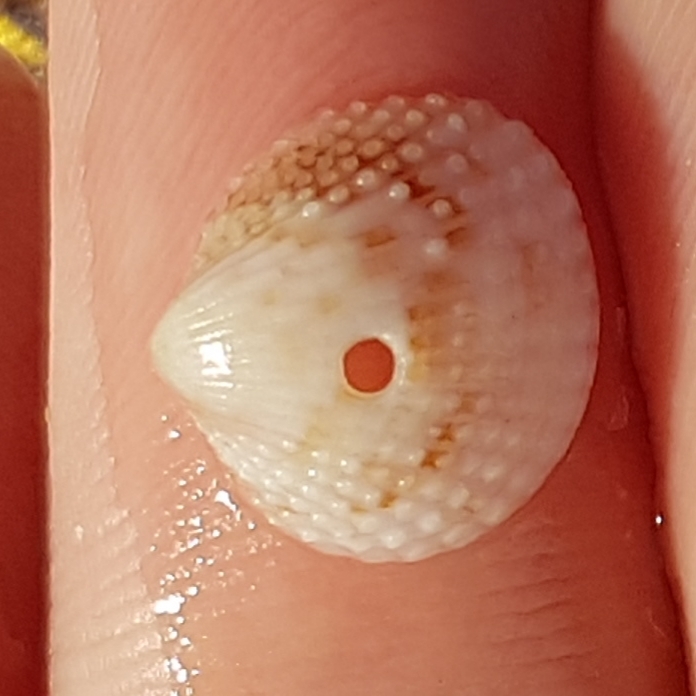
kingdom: Animalia
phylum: Mollusca
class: Bivalvia
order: Cardiida
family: Cardiidae
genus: Papillicardium
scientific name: Papillicardium papillosum
